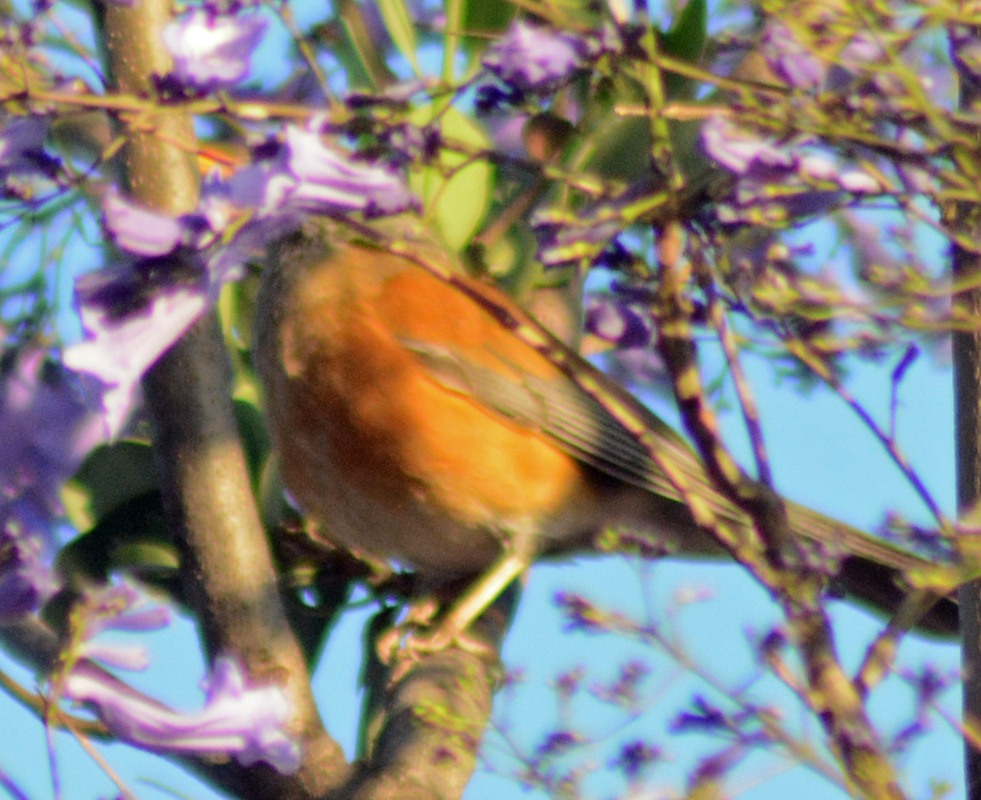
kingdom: Animalia
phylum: Chordata
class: Aves
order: Passeriformes
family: Turdidae
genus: Turdus
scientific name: Turdus rufopalliatus
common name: Rufous-backed robin
